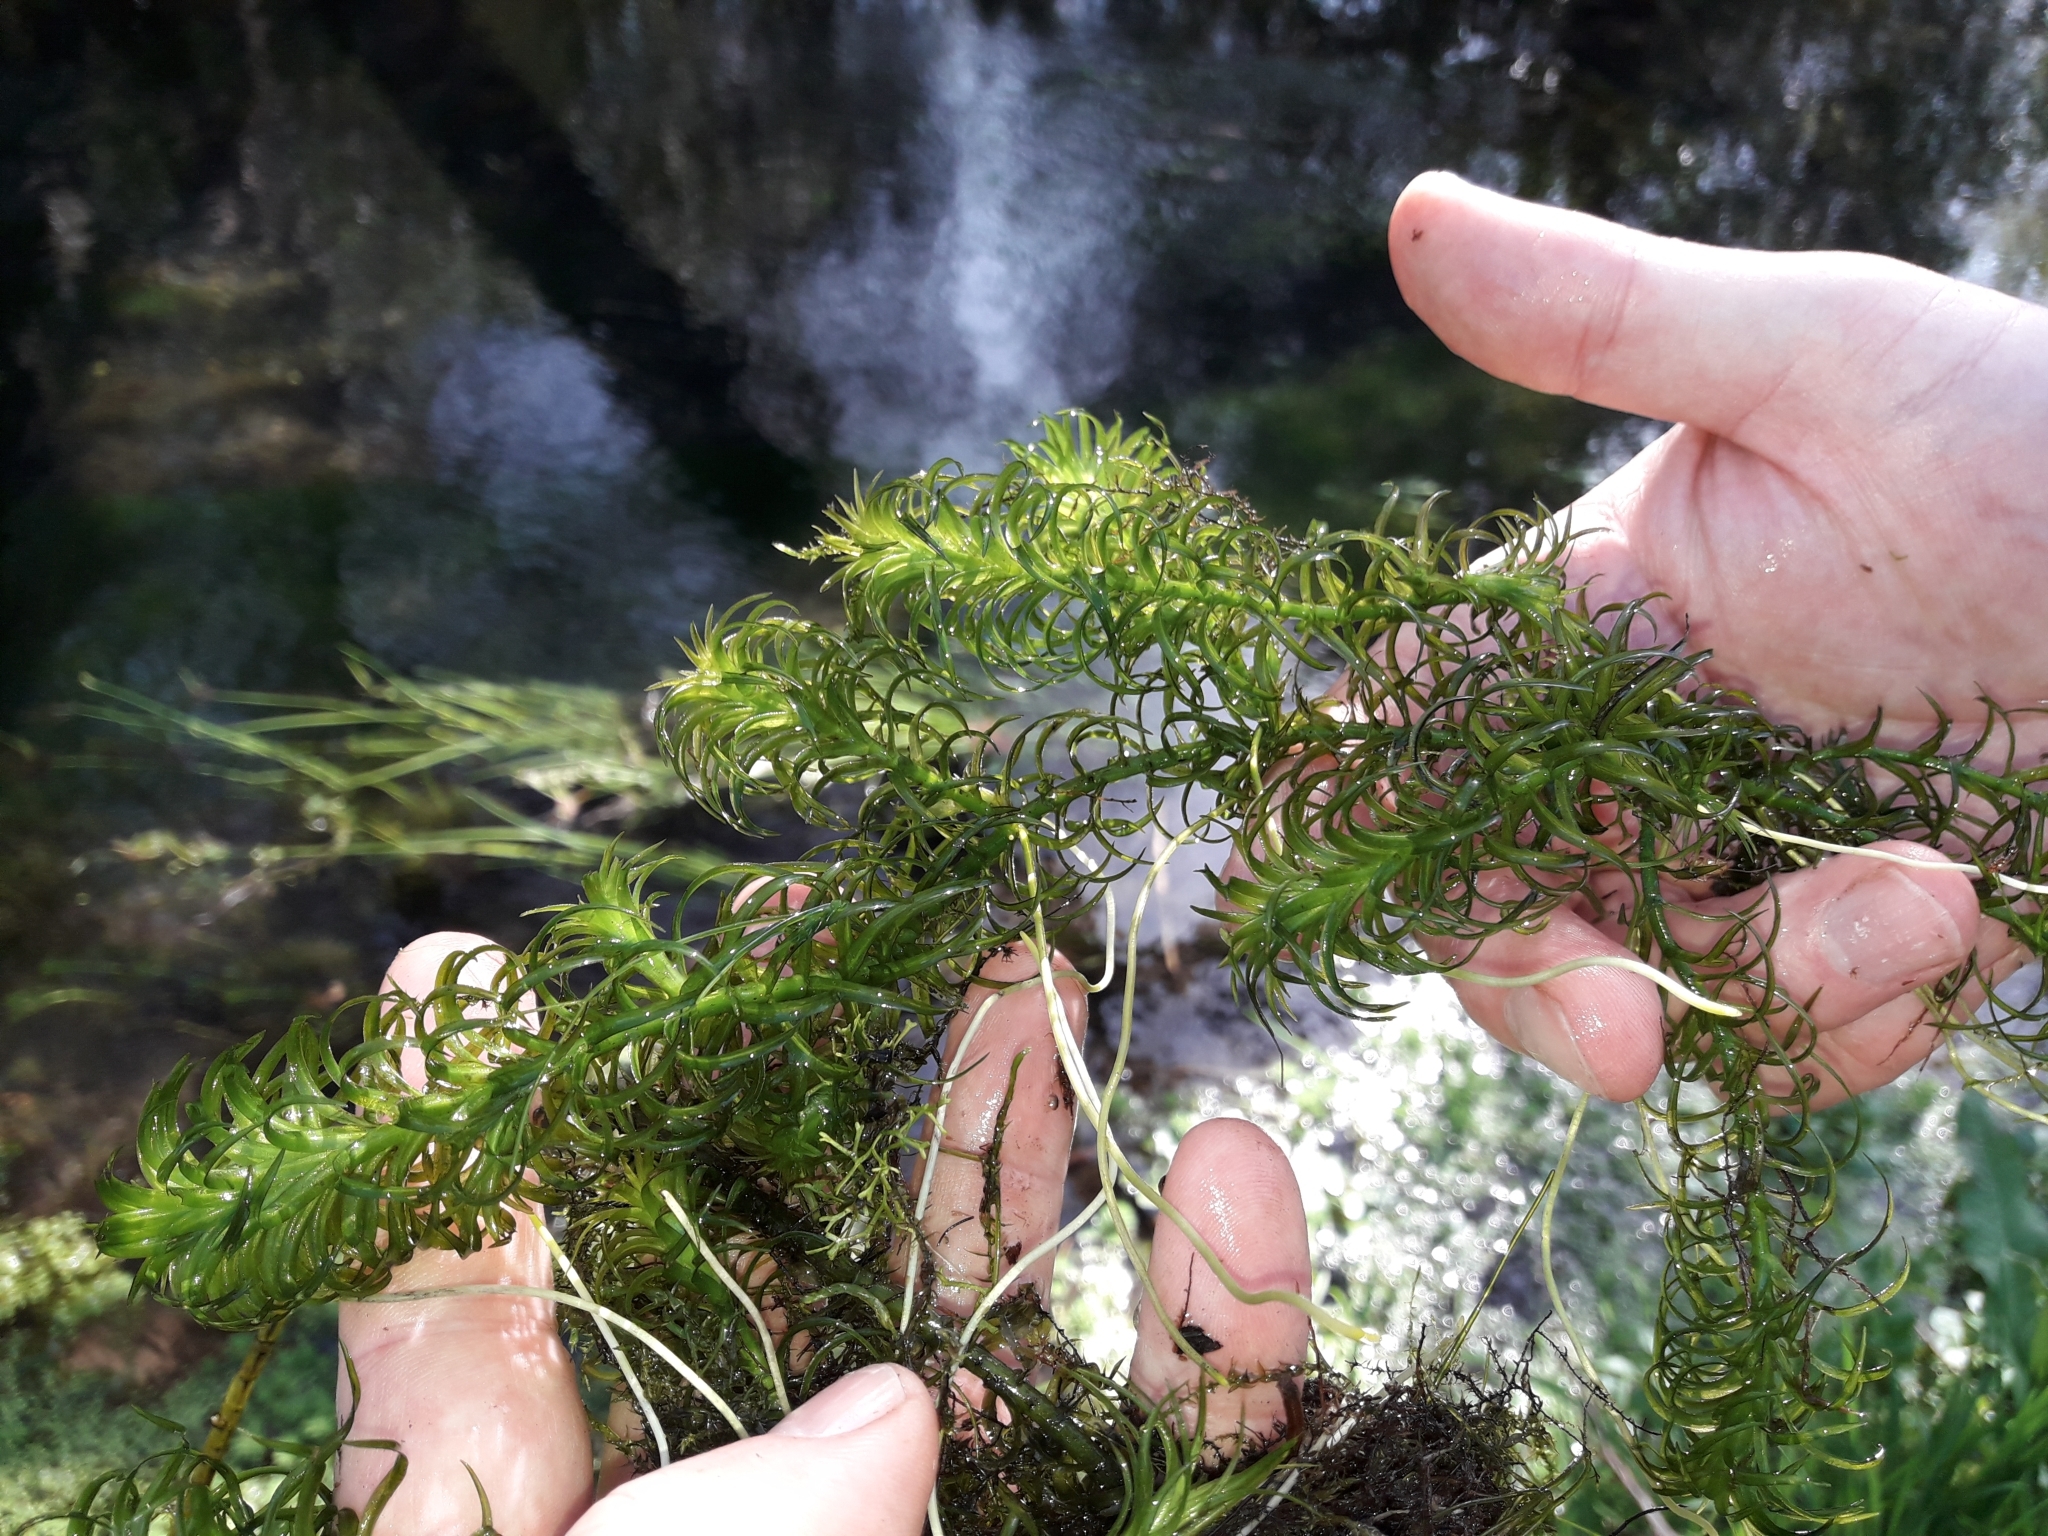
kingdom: Plantae
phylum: Tracheophyta
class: Liliopsida
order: Alismatales
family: Hydrocharitaceae
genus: Lagarosiphon
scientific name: Lagarosiphon major
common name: Curly waterweed
